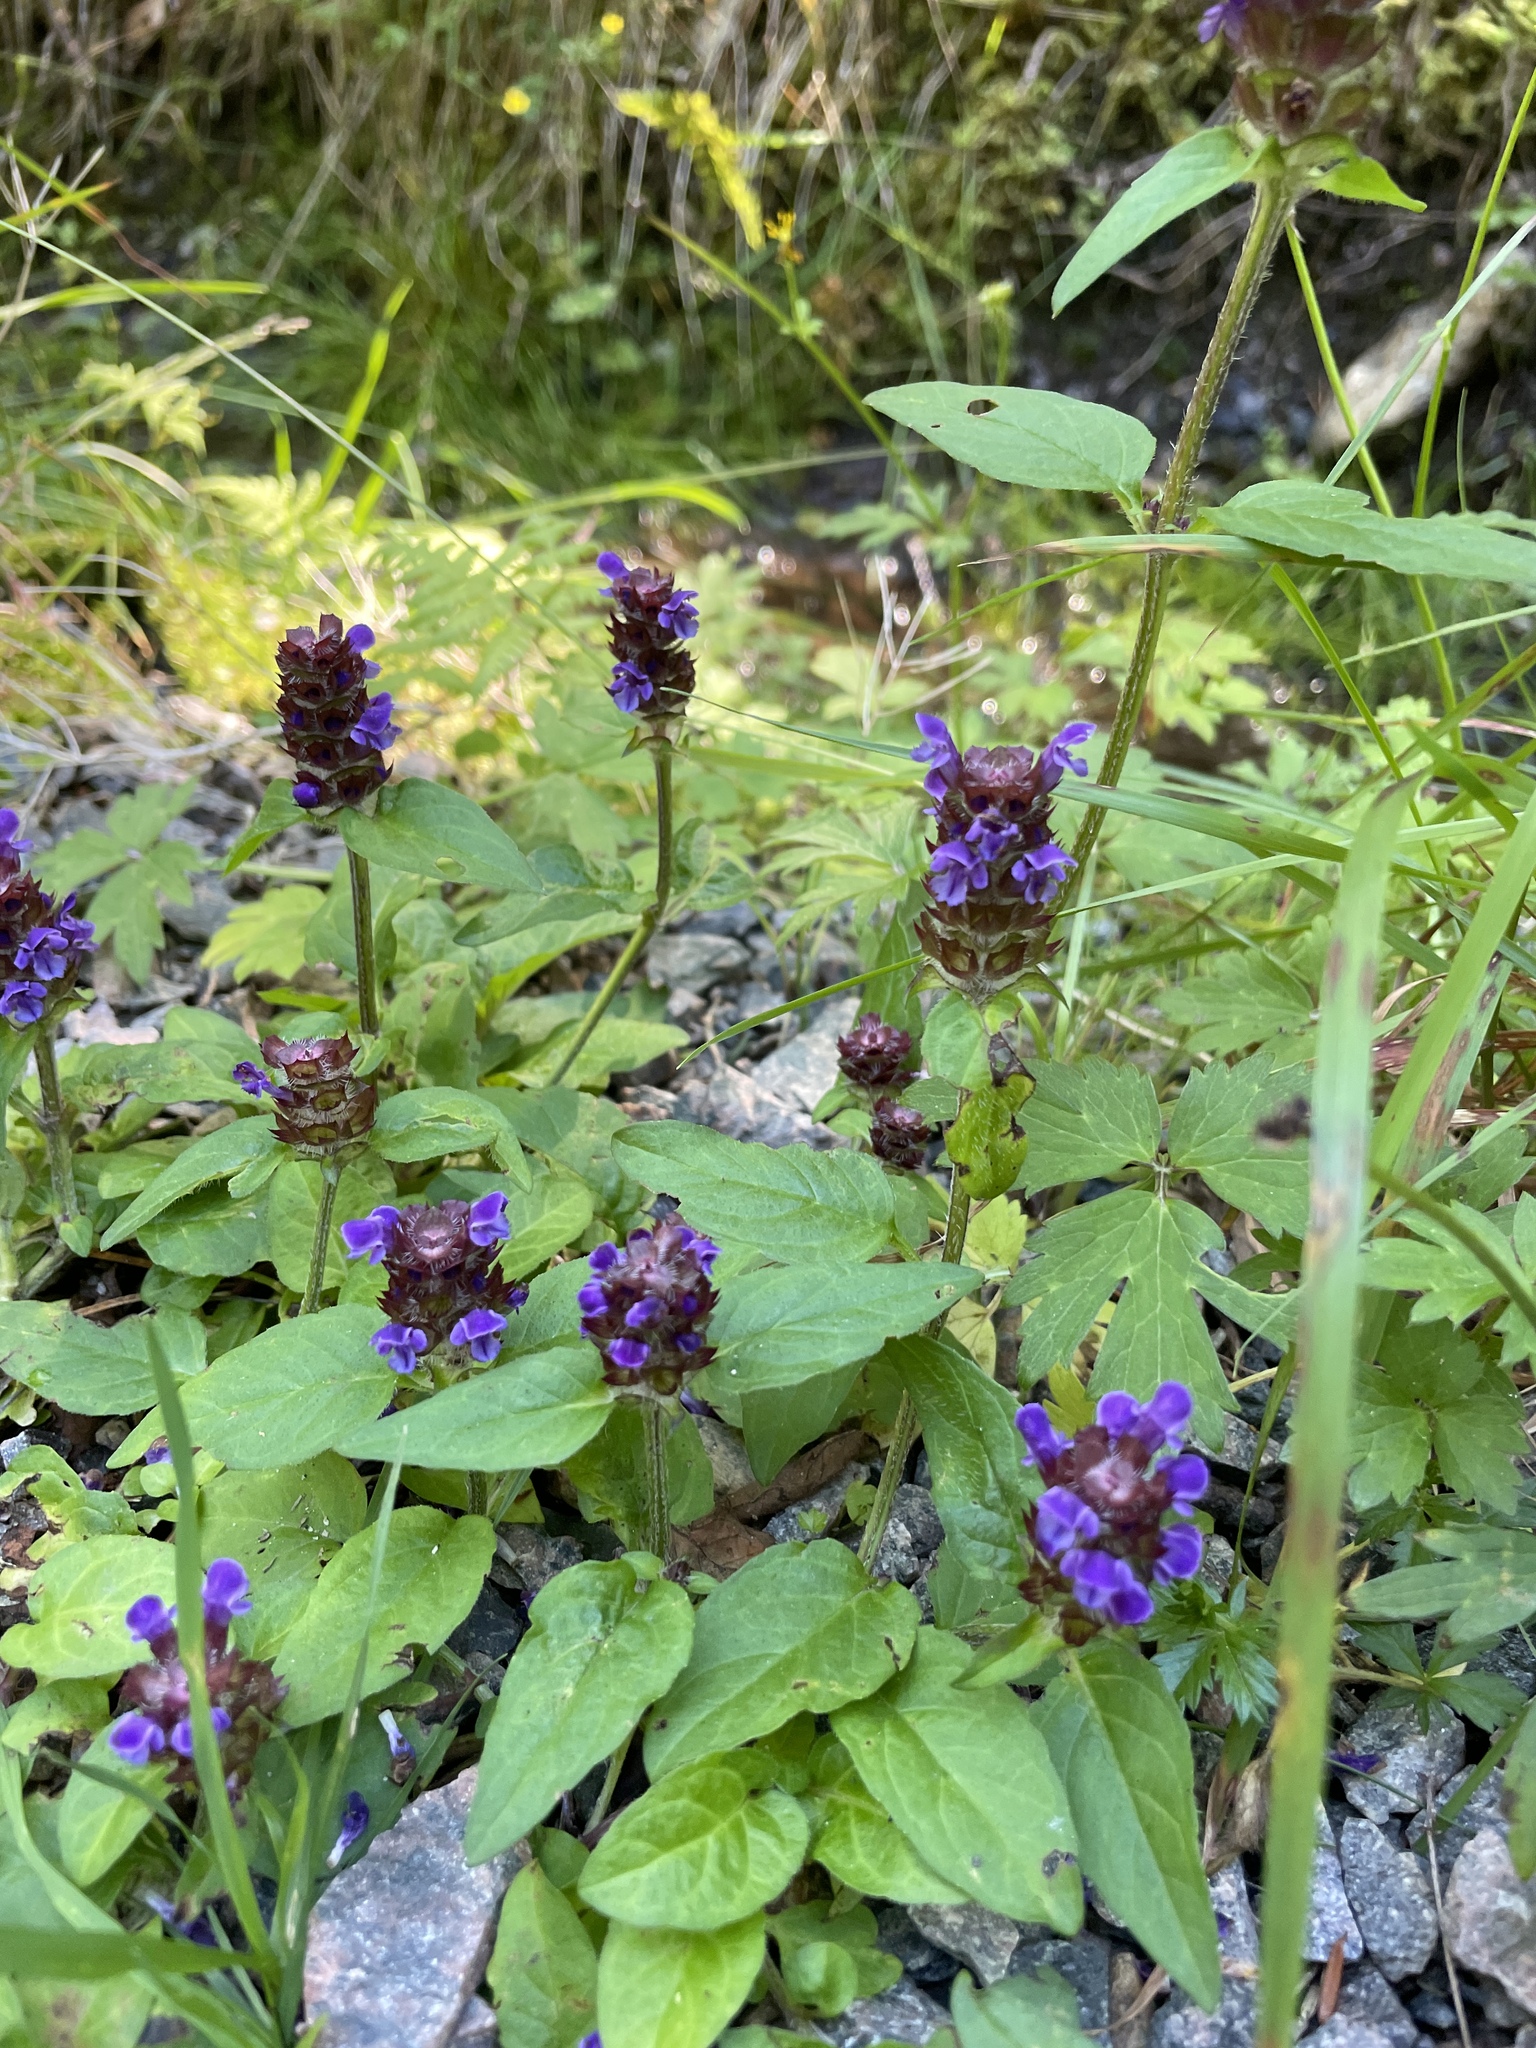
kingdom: Plantae
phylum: Tracheophyta
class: Magnoliopsida
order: Lamiales
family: Lamiaceae
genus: Prunella
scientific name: Prunella vulgaris
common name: Heal-all
